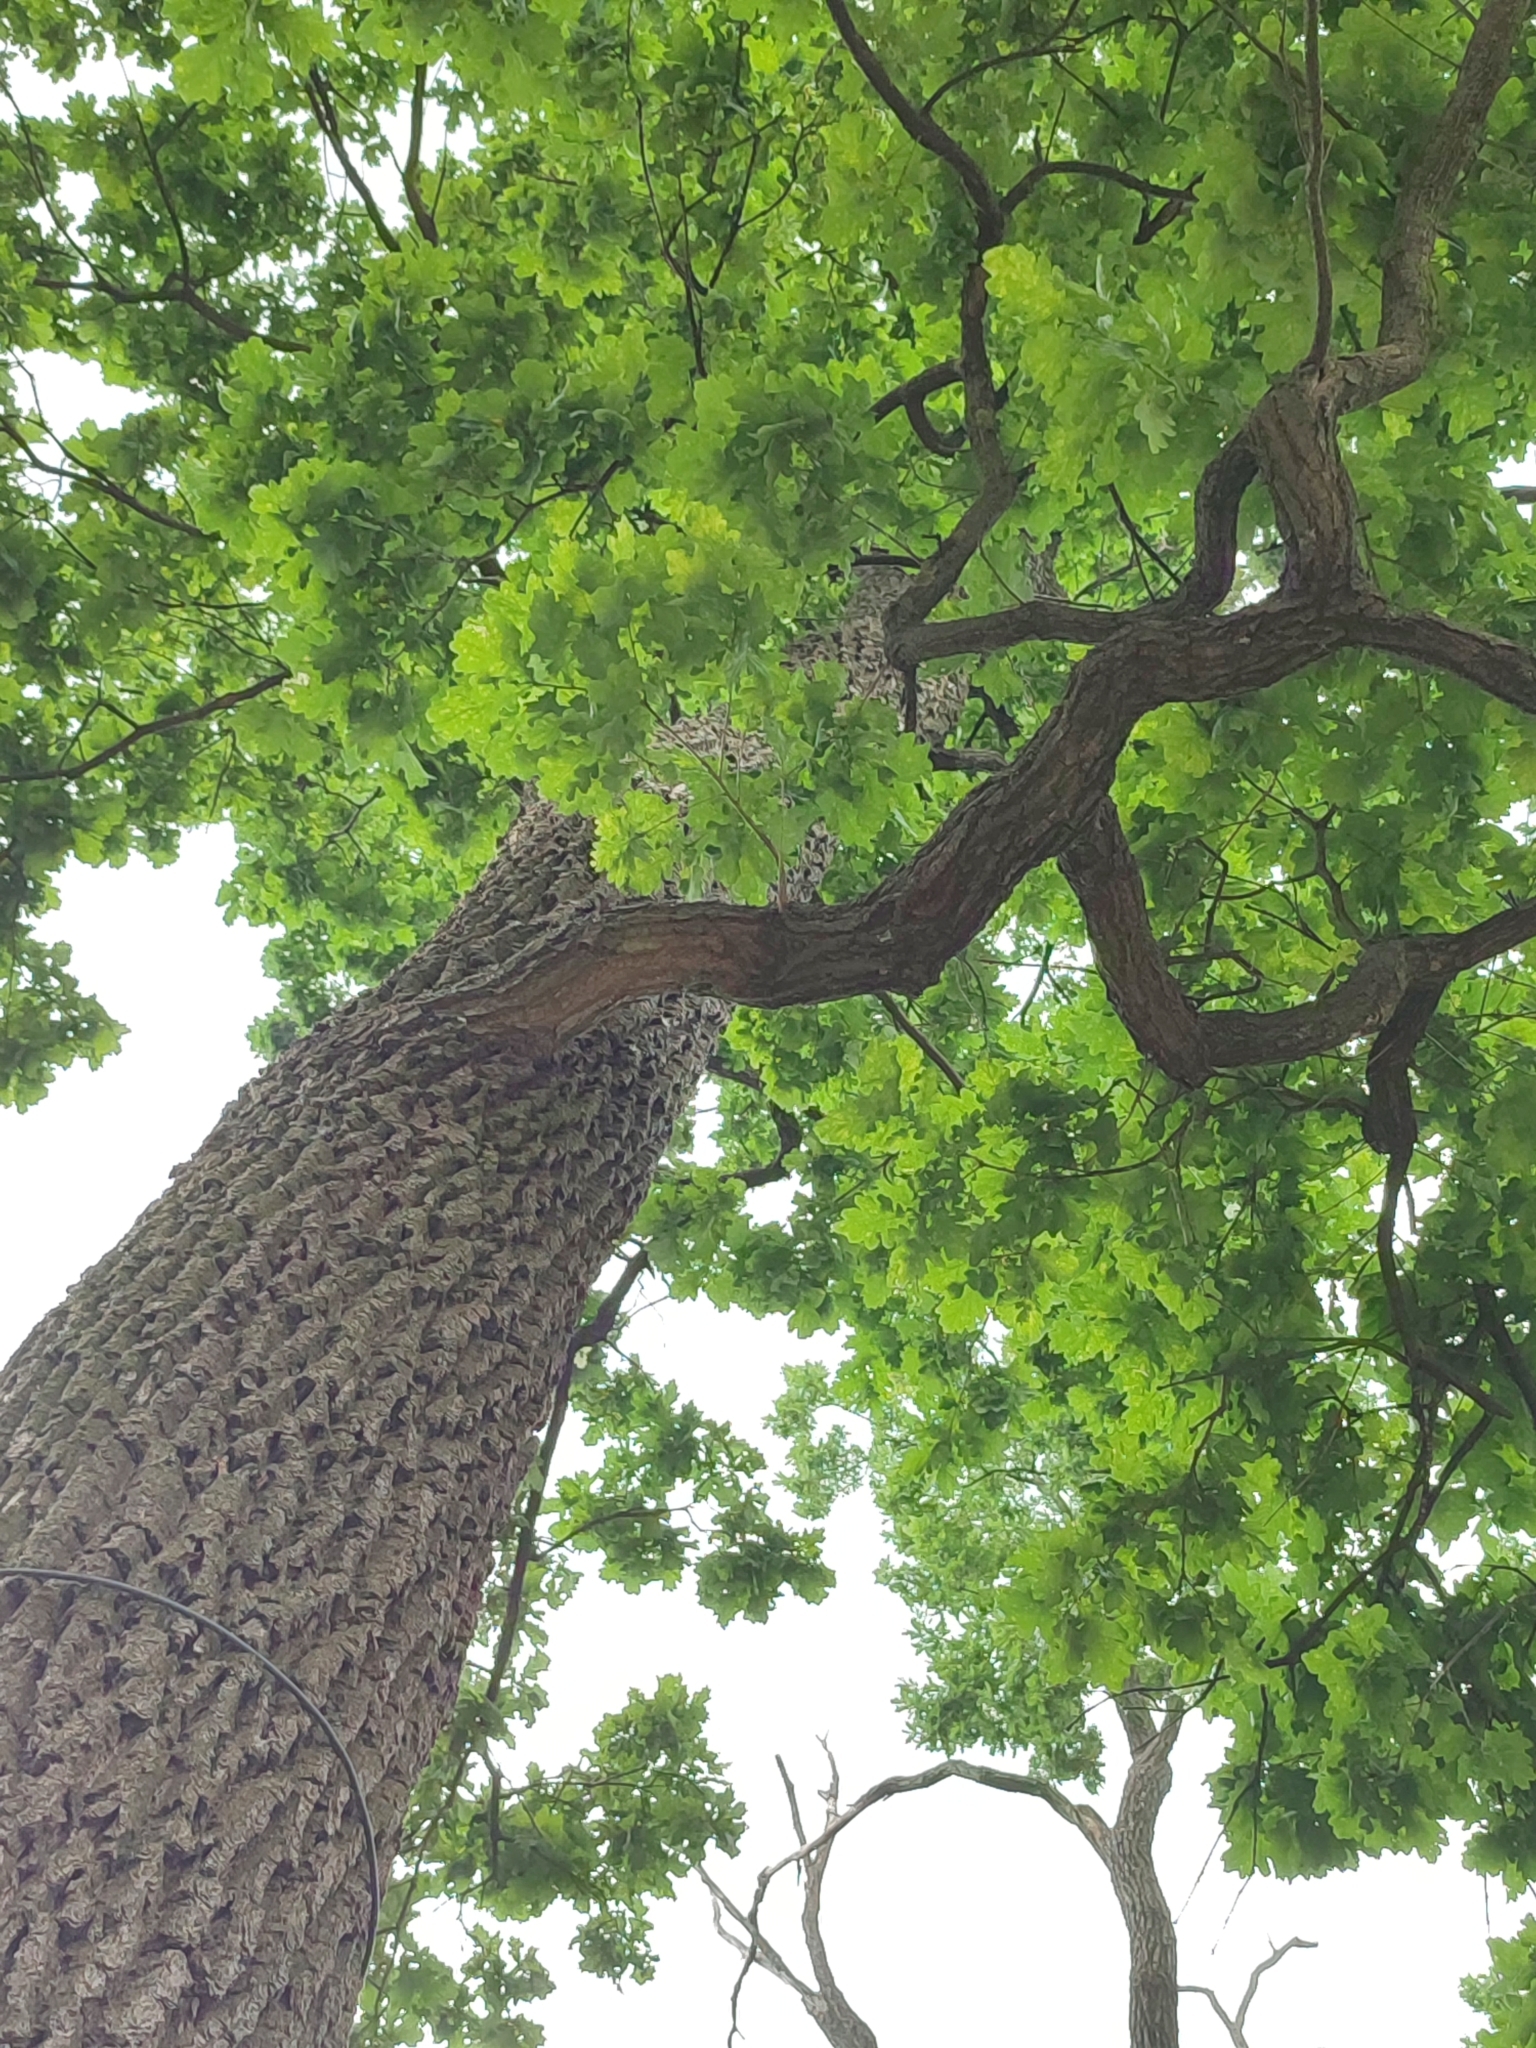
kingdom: Plantae
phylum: Tracheophyta
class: Magnoliopsida
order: Fagales
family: Fagaceae
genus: Quercus
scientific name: Quercus robur
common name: Pedunculate oak
